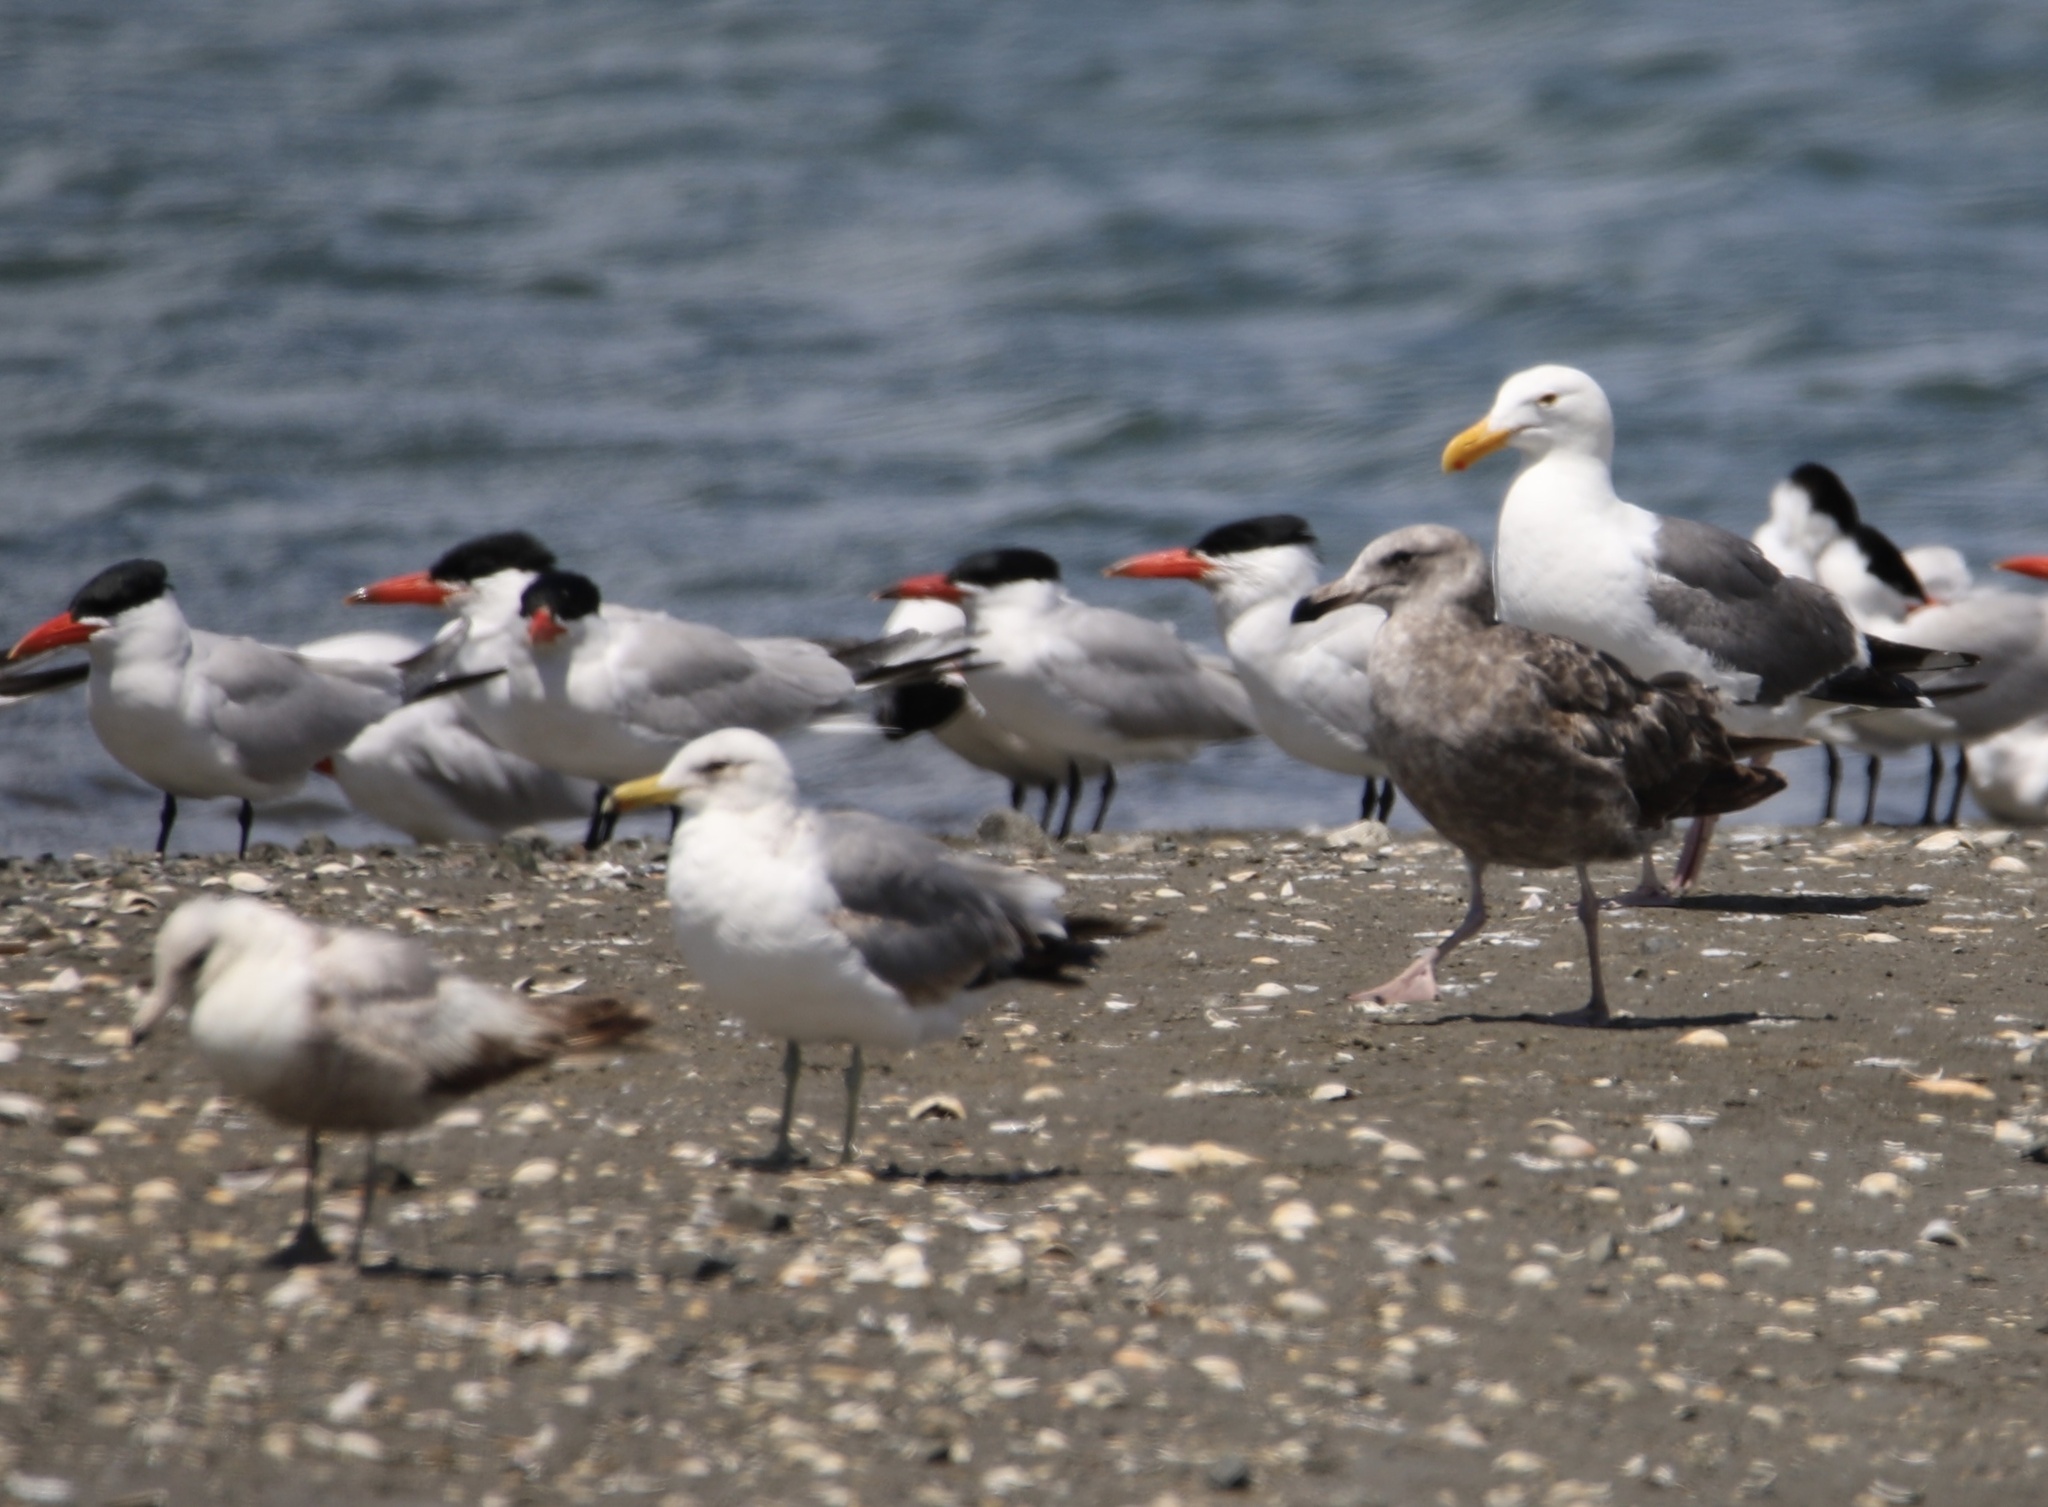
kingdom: Animalia
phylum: Chordata
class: Aves
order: Charadriiformes
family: Laridae
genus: Larus
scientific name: Larus californicus
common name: California gull
